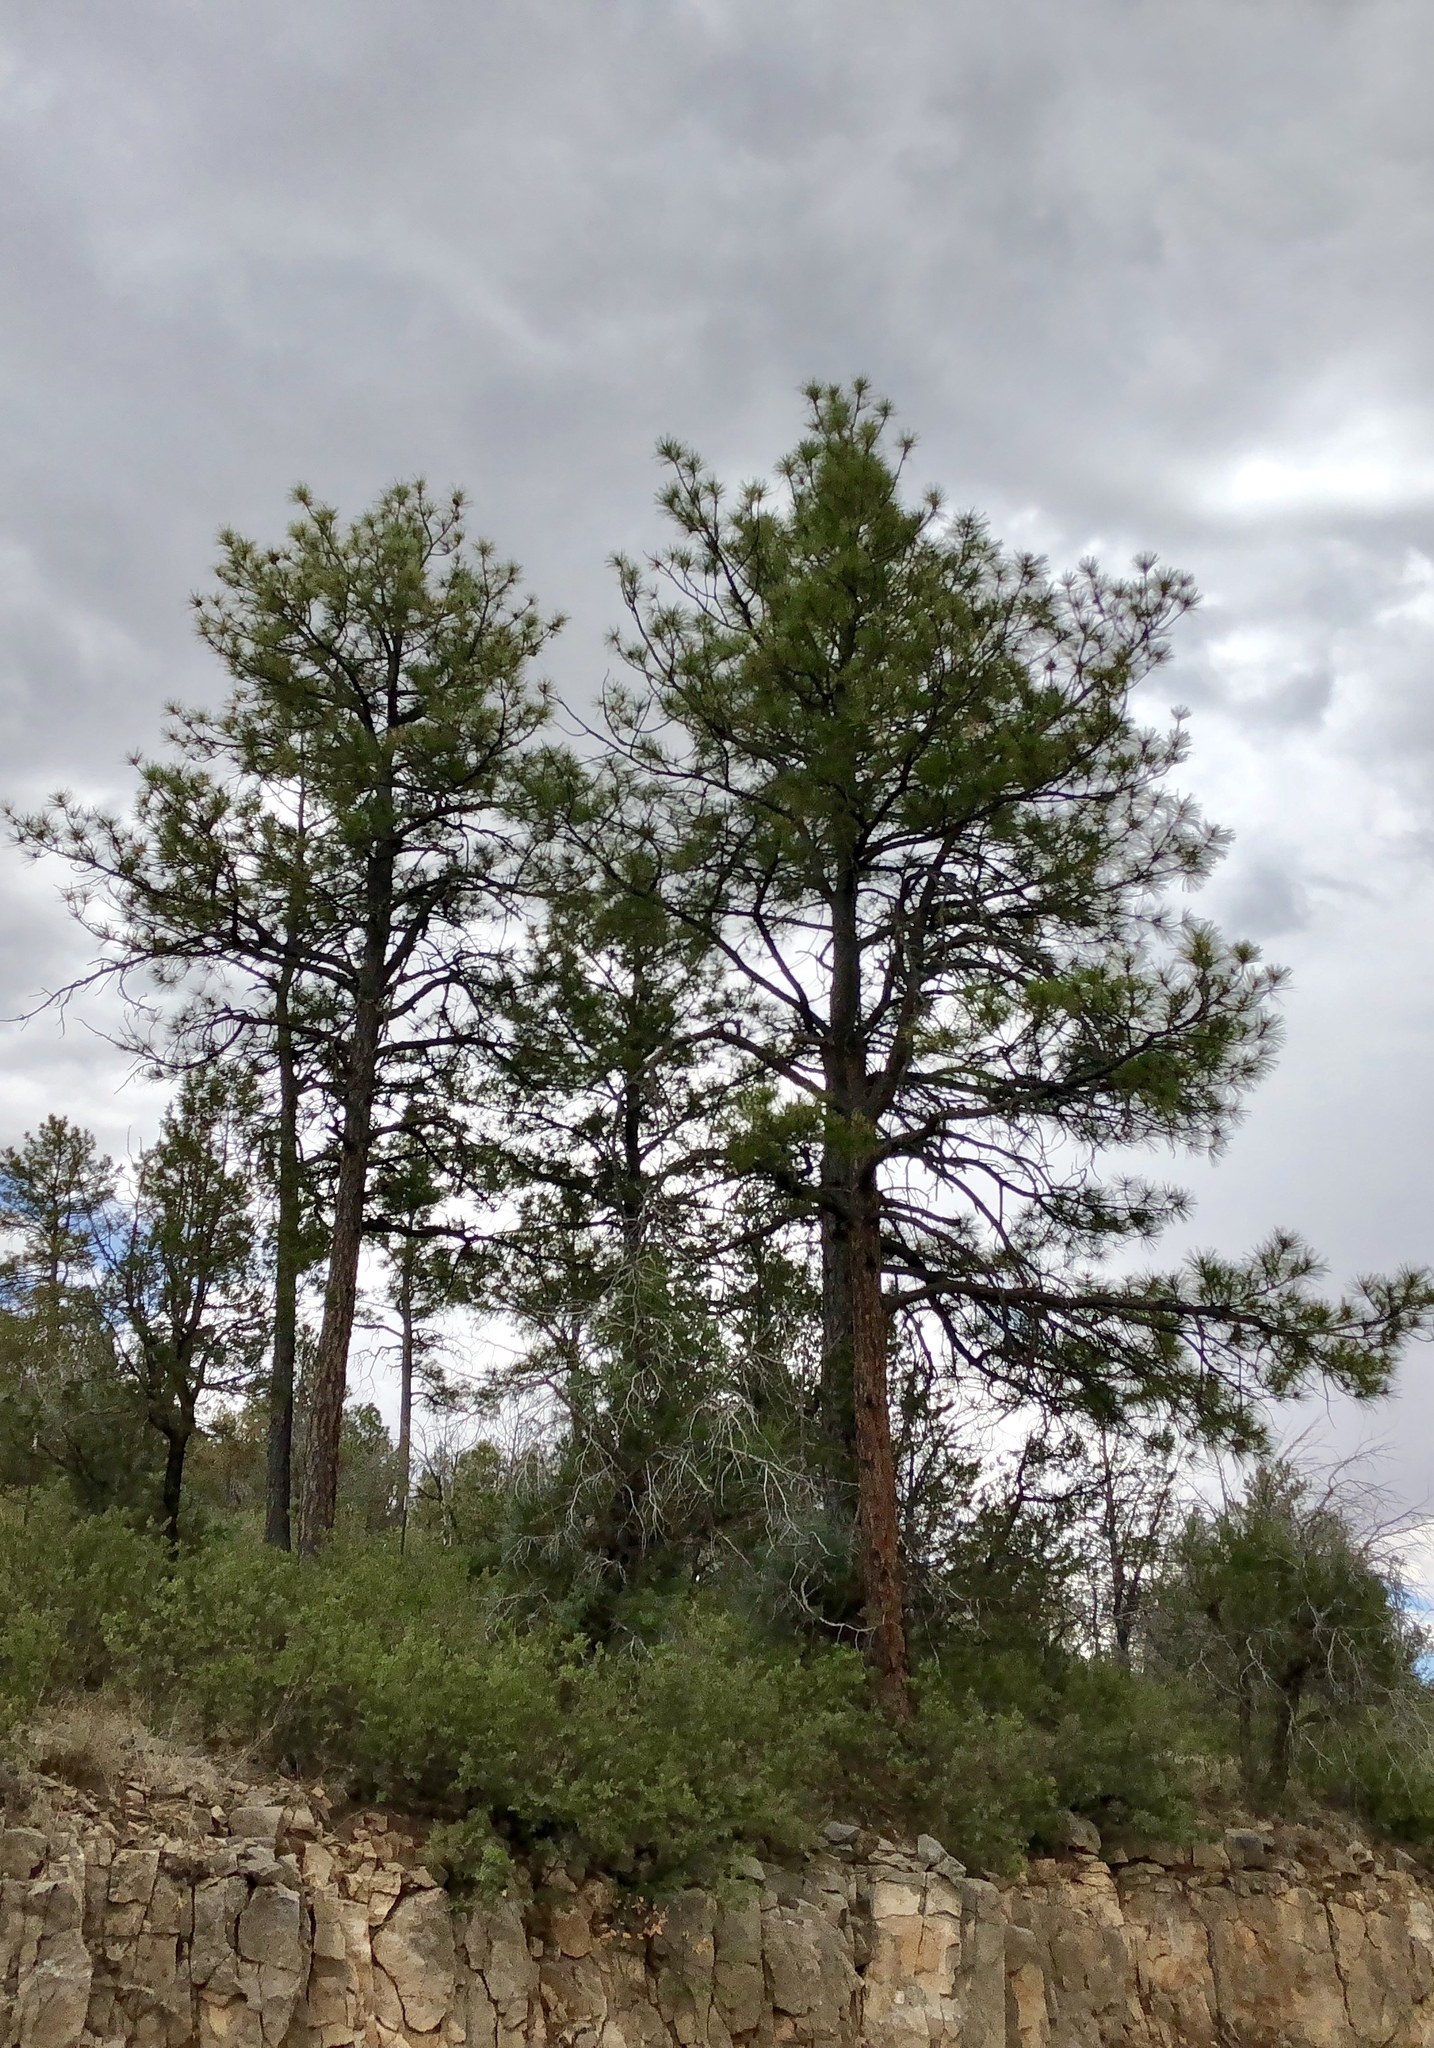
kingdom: Plantae
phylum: Tracheophyta
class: Pinopsida
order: Pinales
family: Pinaceae
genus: Pinus
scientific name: Pinus ponderosa
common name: Western yellow-pine
